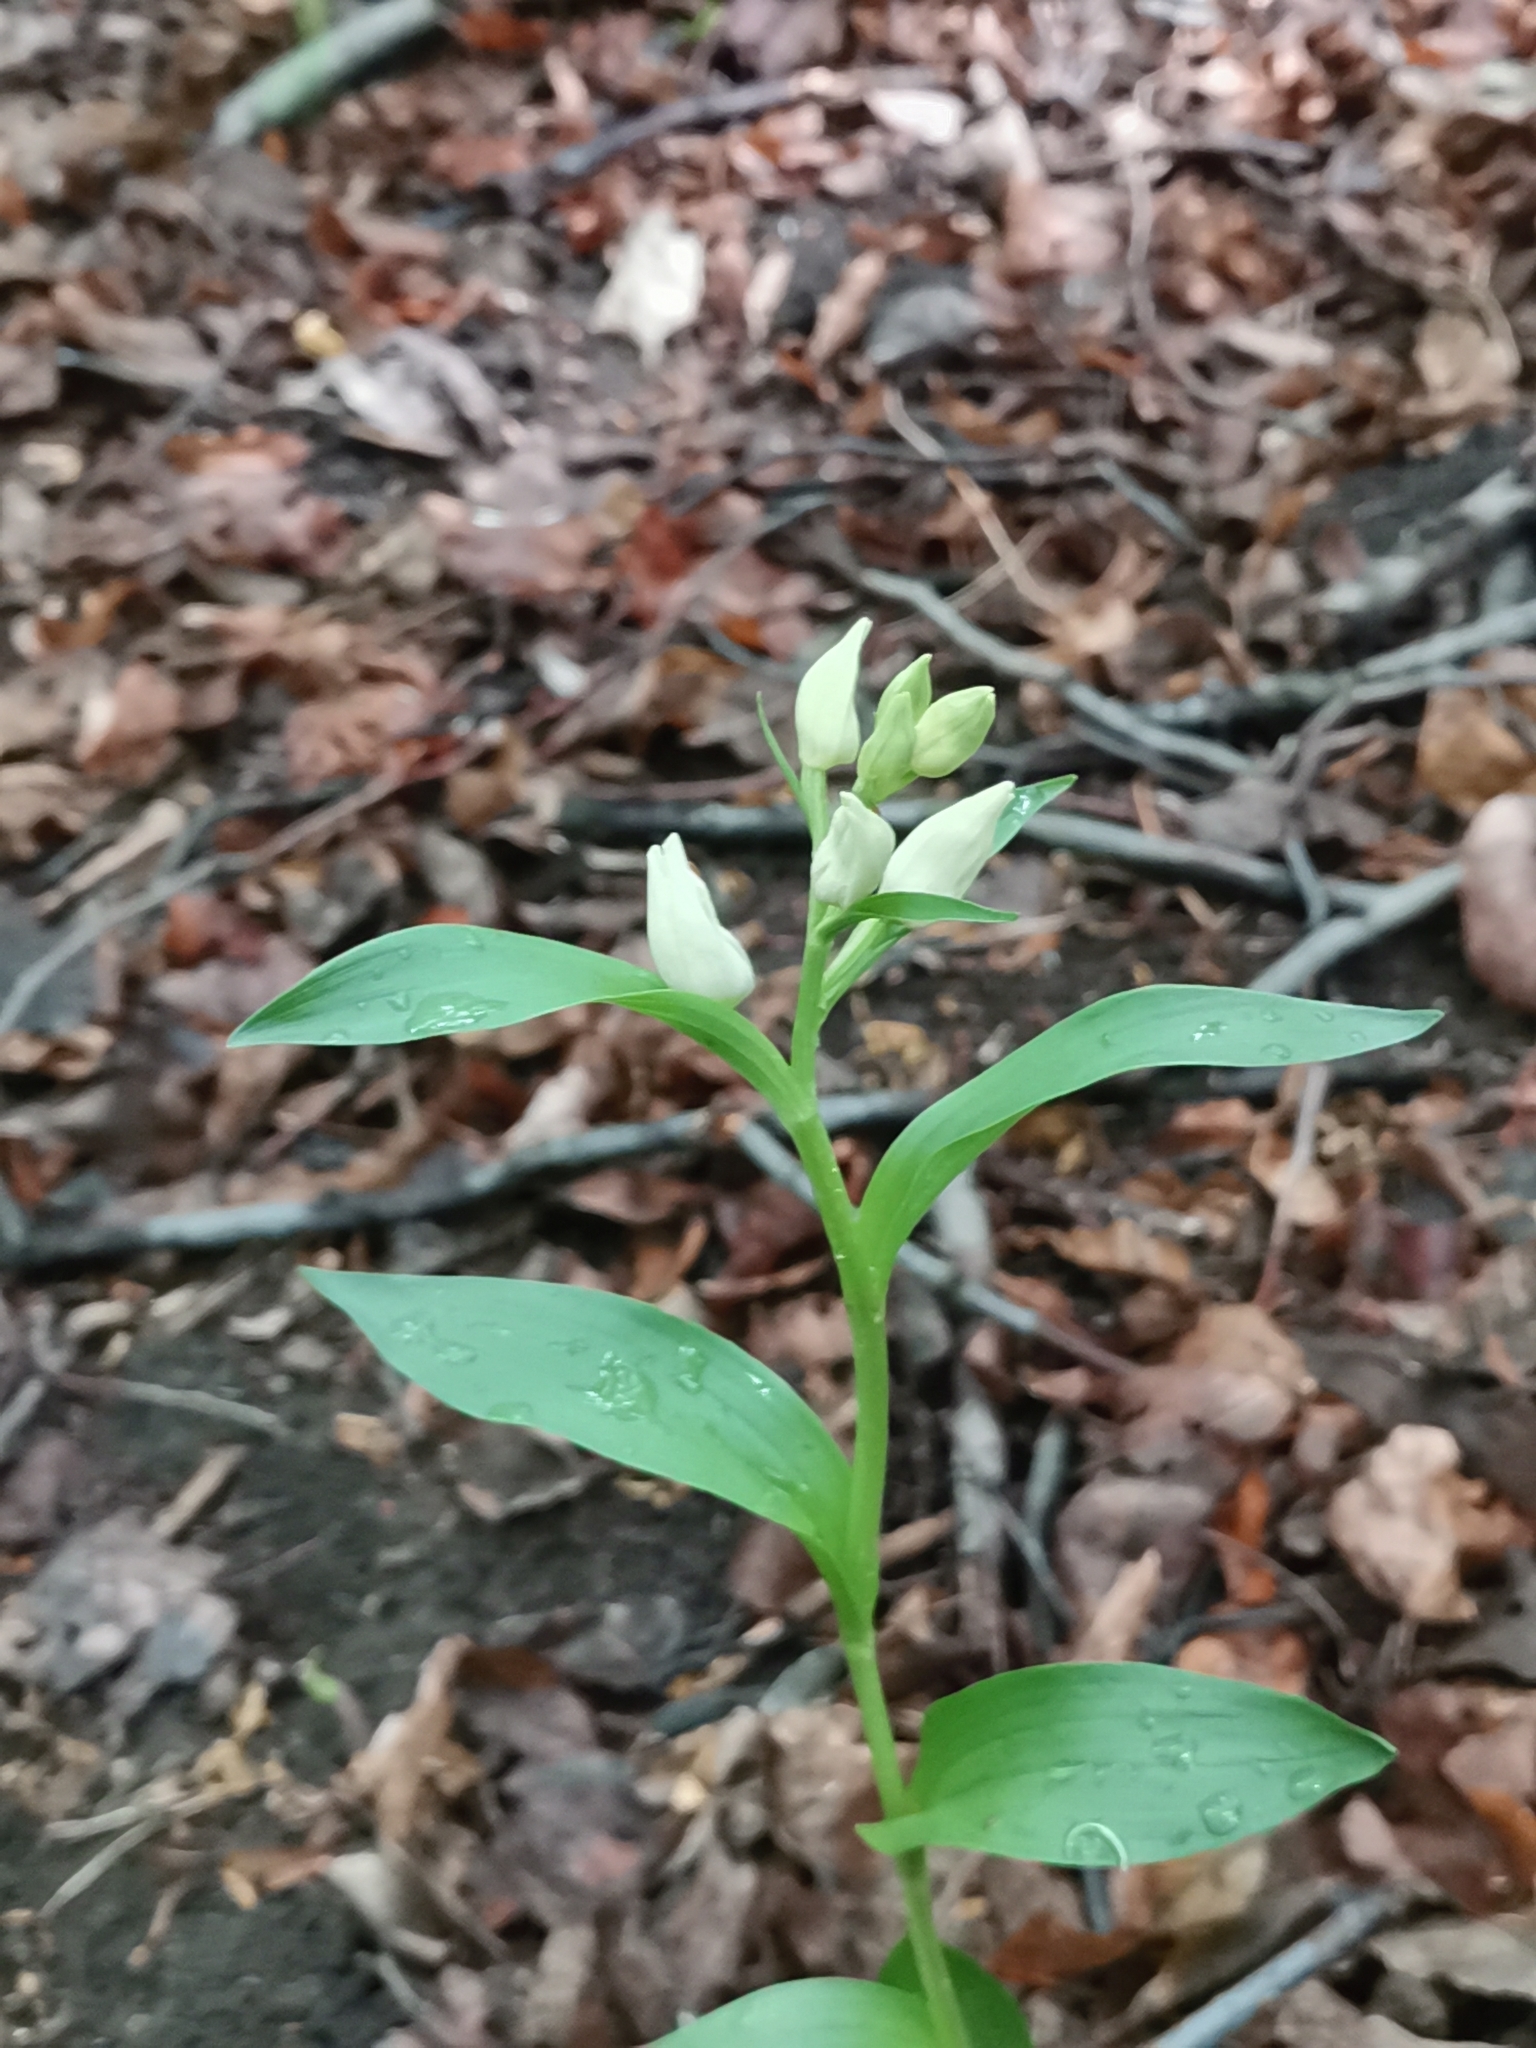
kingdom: Plantae
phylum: Tracheophyta
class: Liliopsida
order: Asparagales
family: Orchidaceae
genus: Cephalanthera
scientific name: Cephalanthera damasonium
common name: White helleborine
